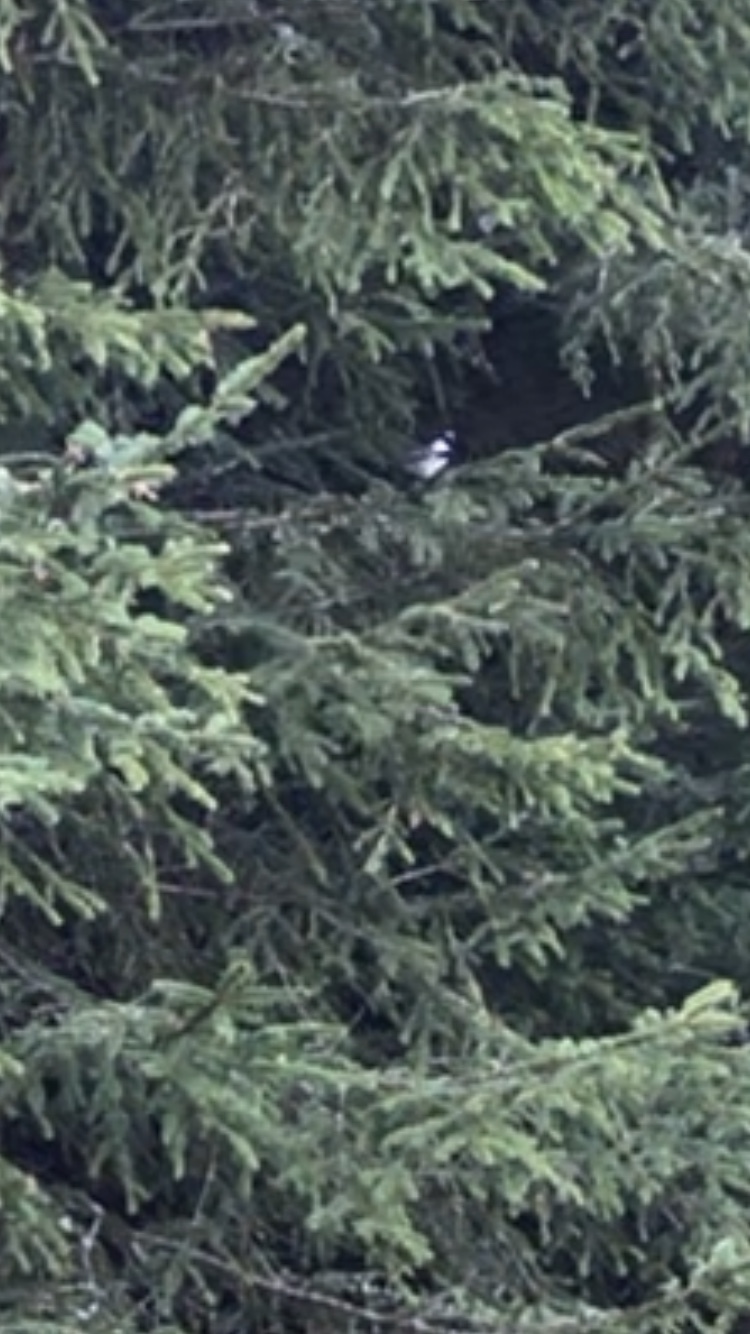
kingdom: Animalia
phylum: Chordata
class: Aves
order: Passeriformes
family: Paridae
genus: Periparus
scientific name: Periparus ater
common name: Coal tit
